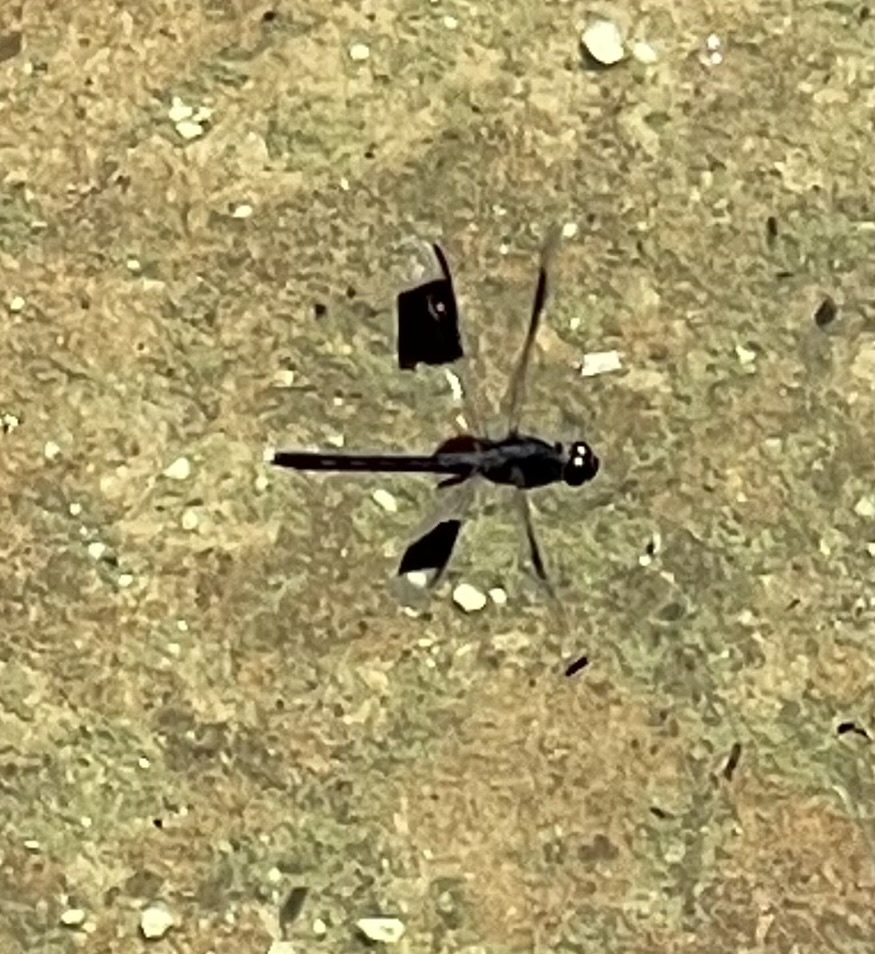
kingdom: Animalia
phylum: Arthropoda
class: Insecta
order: Odonata
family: Libellulidae
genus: Erythrodiplax
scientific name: Erythrodiplax umbrata
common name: Band-winged dragonlet
